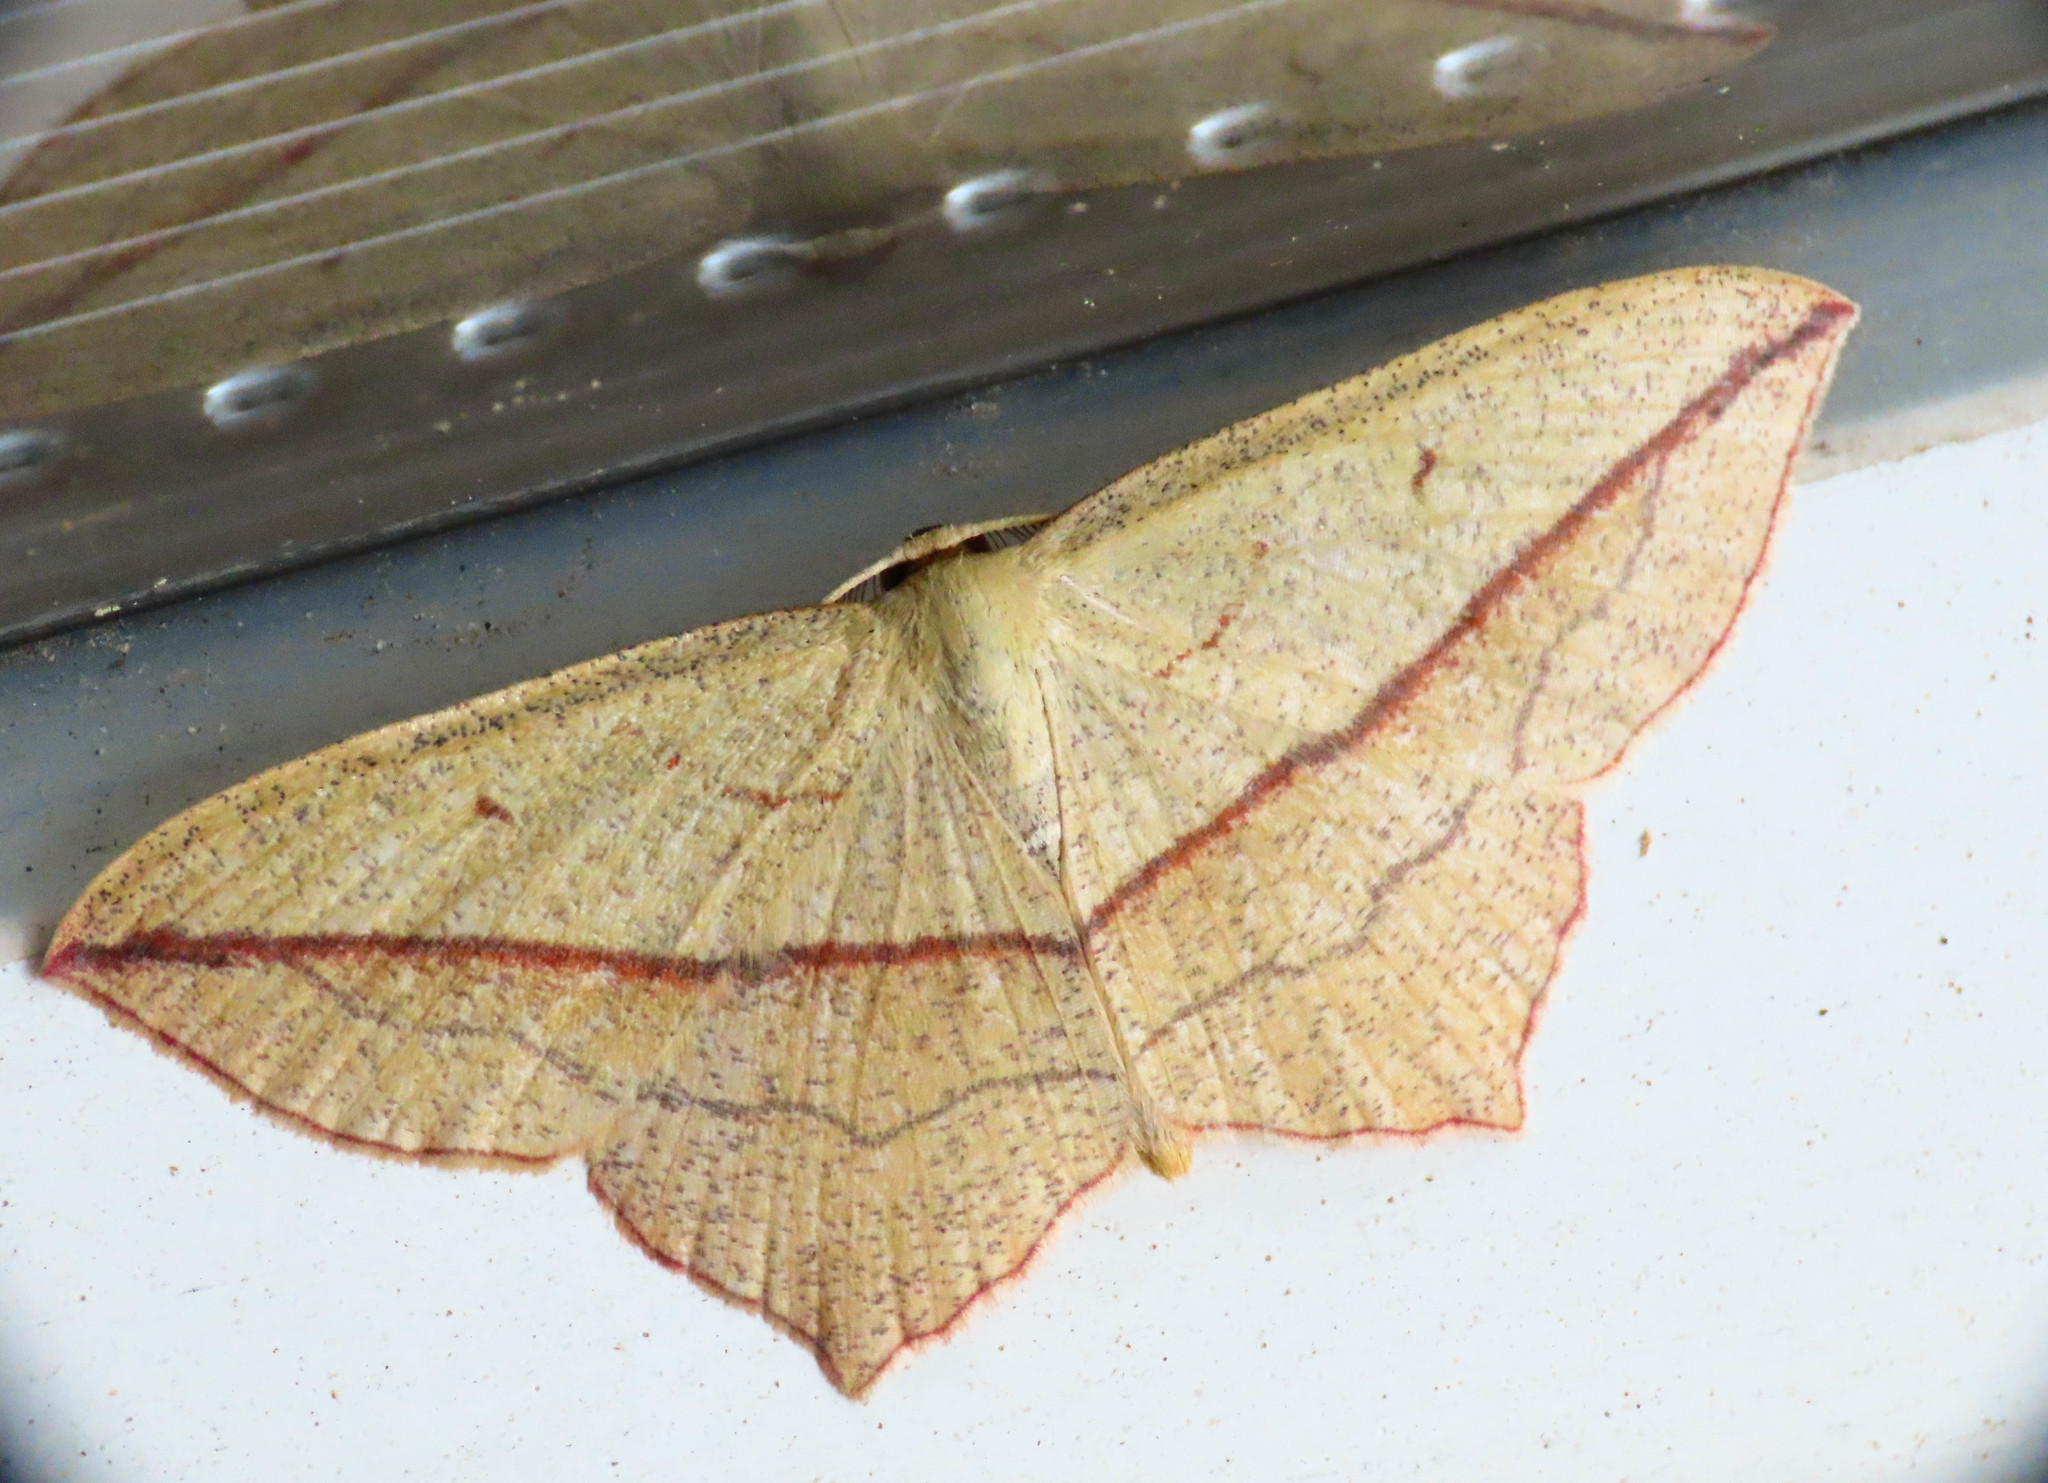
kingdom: Animalia
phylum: Arthropoda
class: Insecta
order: Lepidoptera
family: Geometridae
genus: Timandra
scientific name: Timandra comae
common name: Blood-vein
